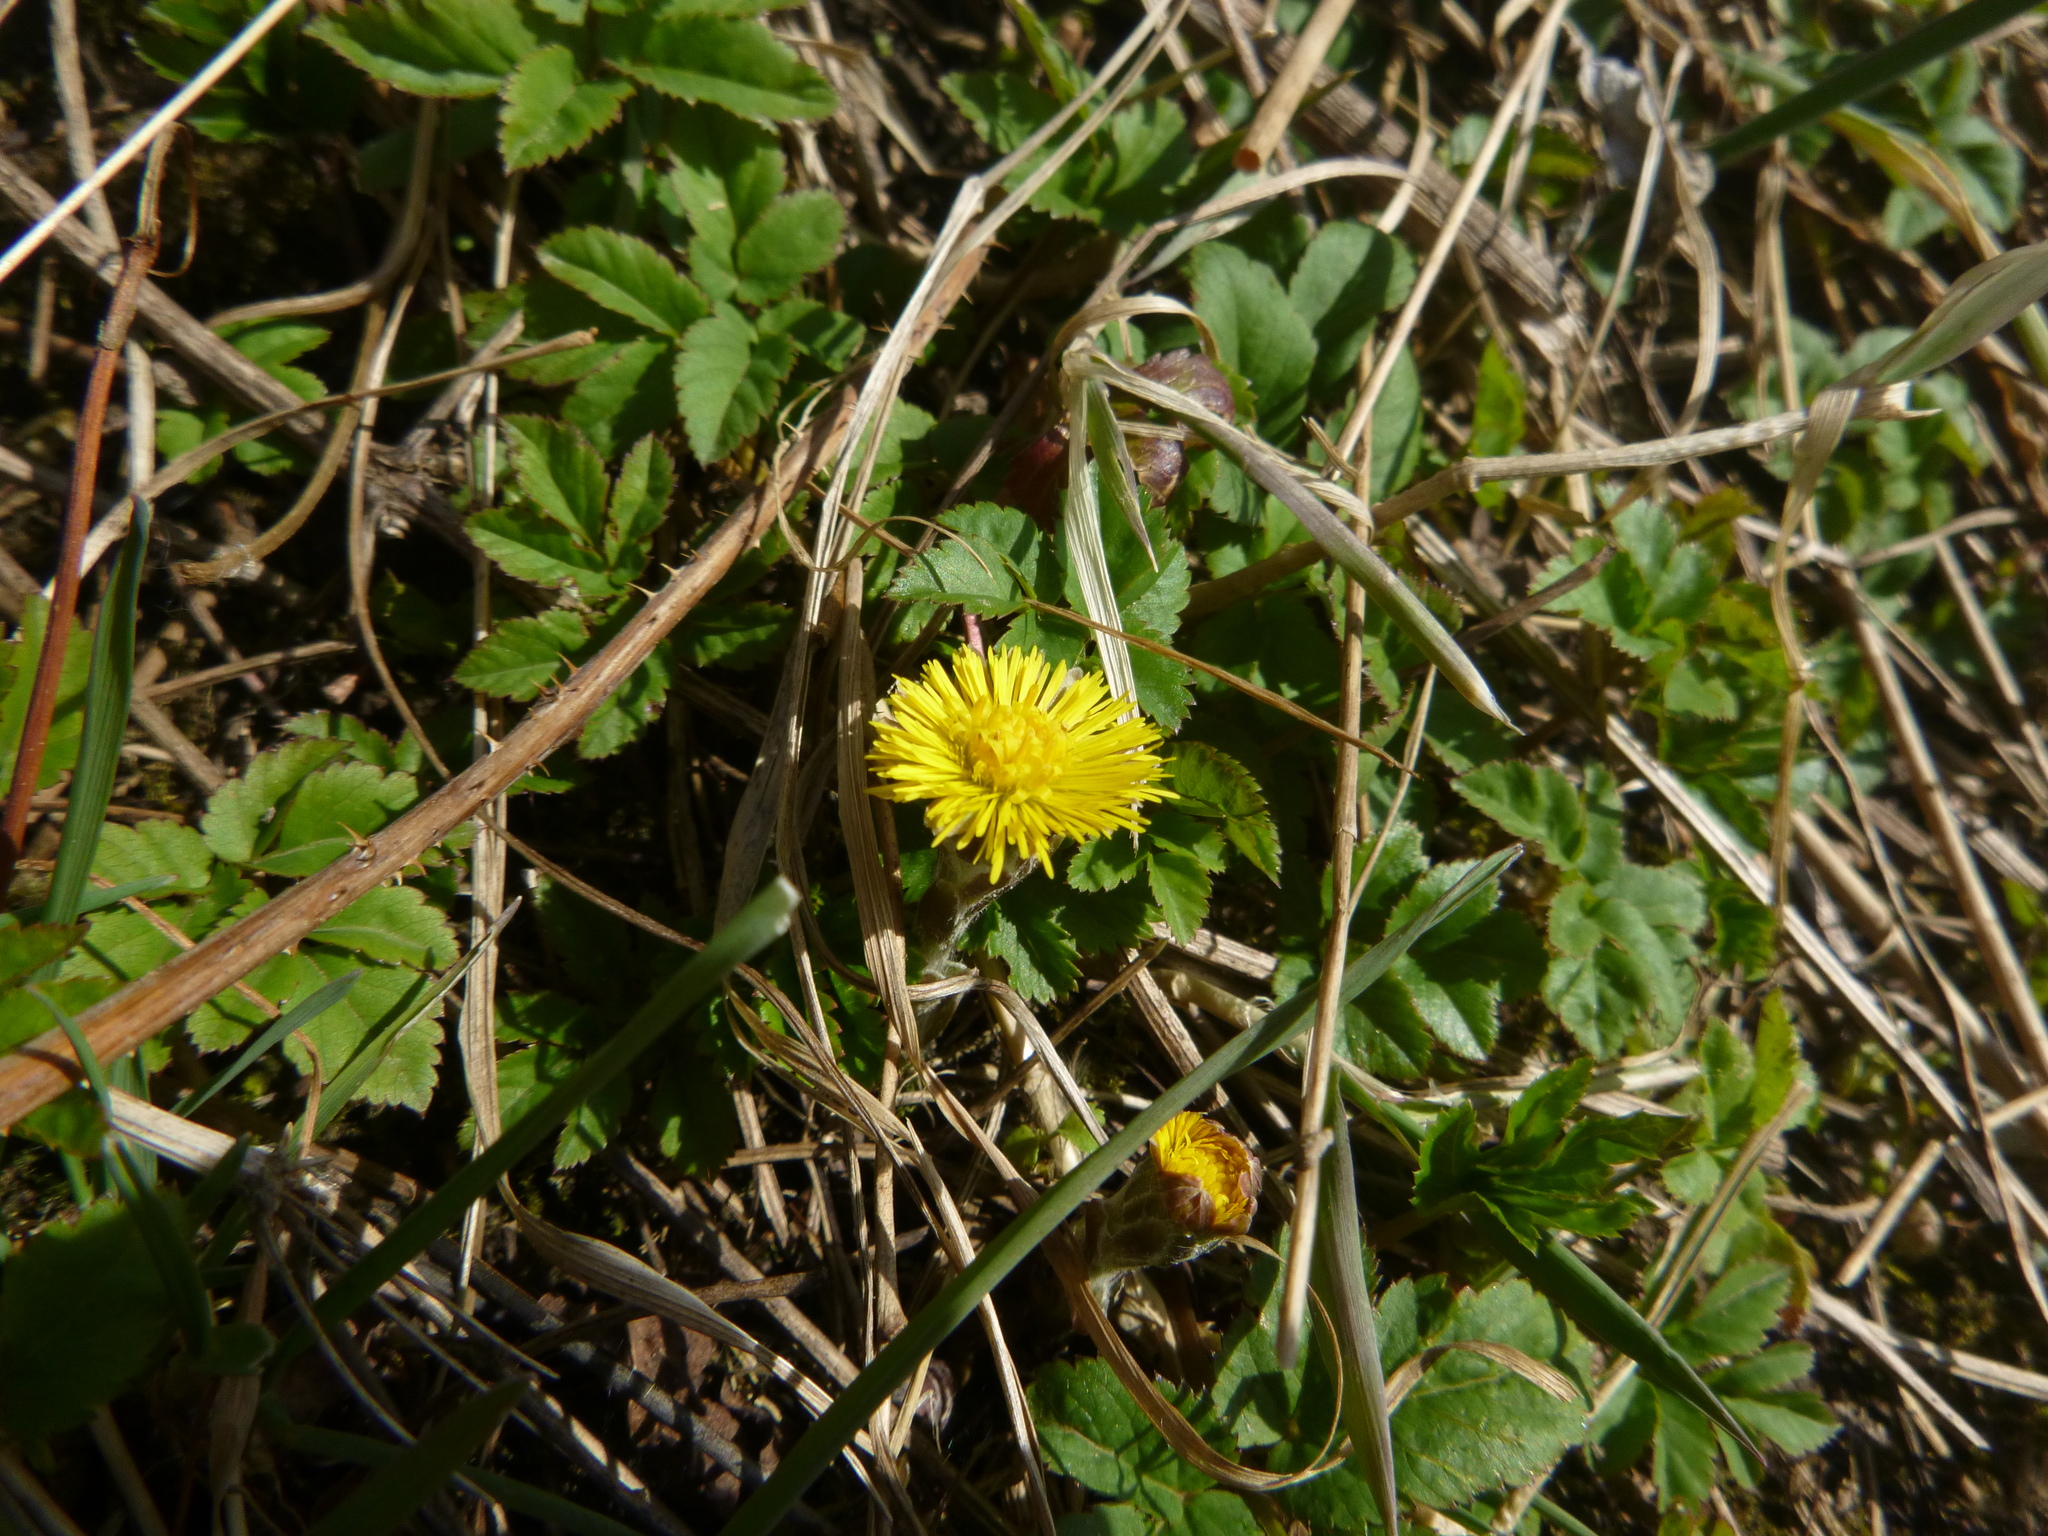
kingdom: Plantae
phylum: Tracheophyta
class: Magnoliopsida
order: Asterales
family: Asteraceae
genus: Tussilago
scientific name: Tussilago farfara
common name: Coltsfoot
